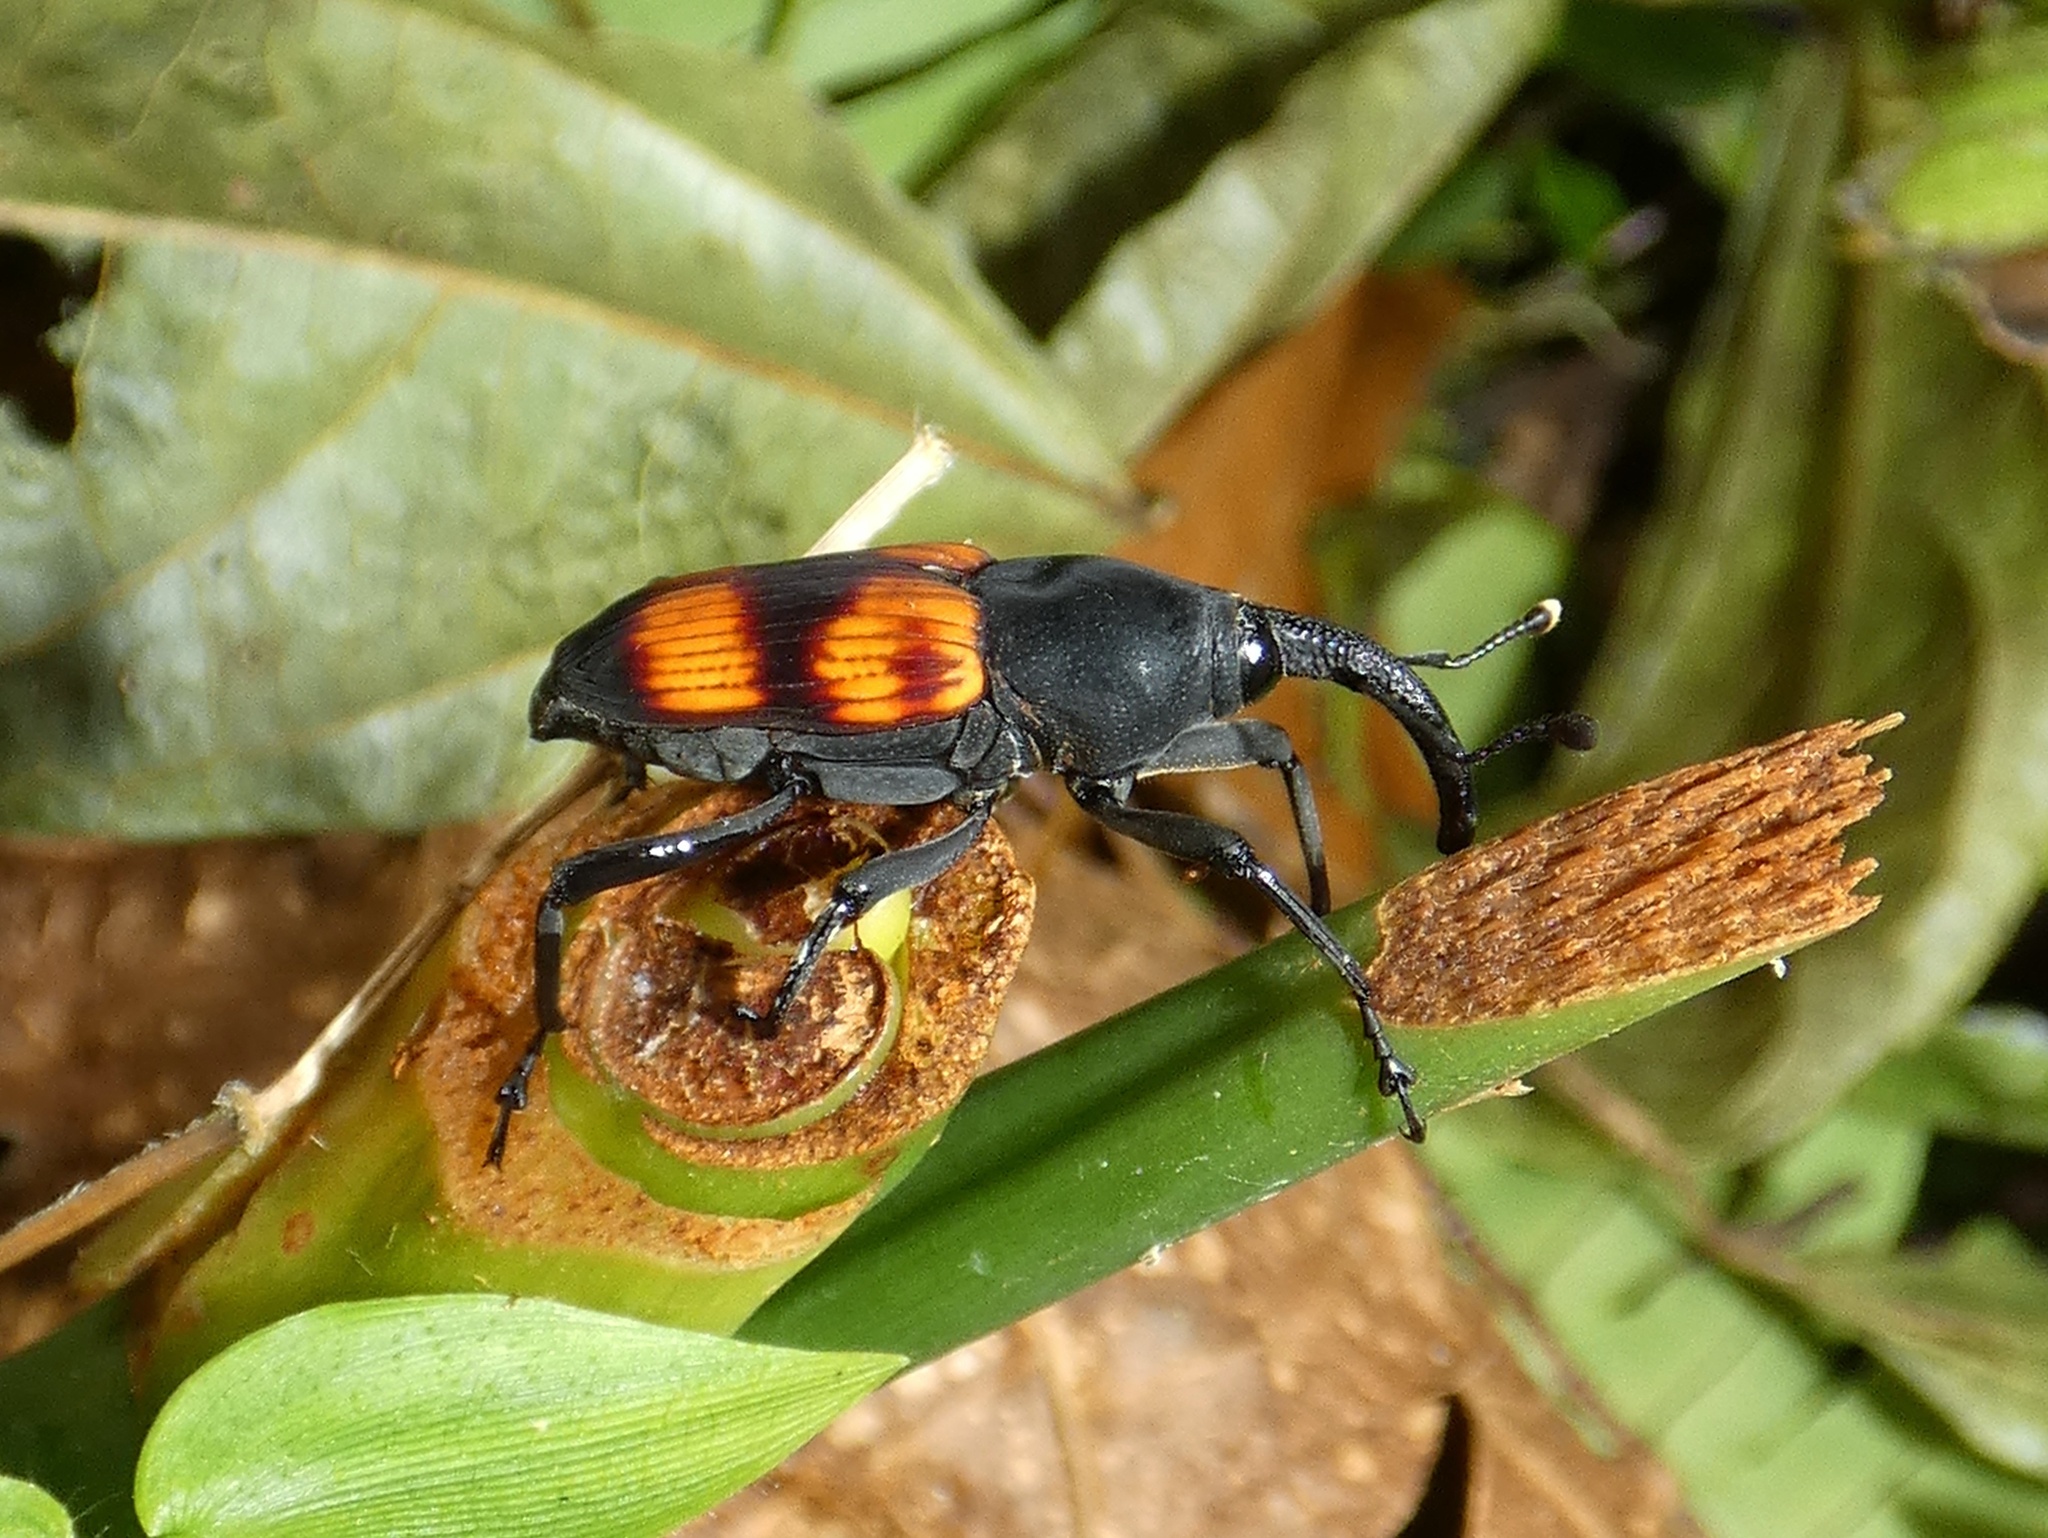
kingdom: Animalia
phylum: Arthropoda
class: Insecta
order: Coleoptera
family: Dryophthoridae
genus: Cactophagus
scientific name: Cactophagus rubrovariegatus
